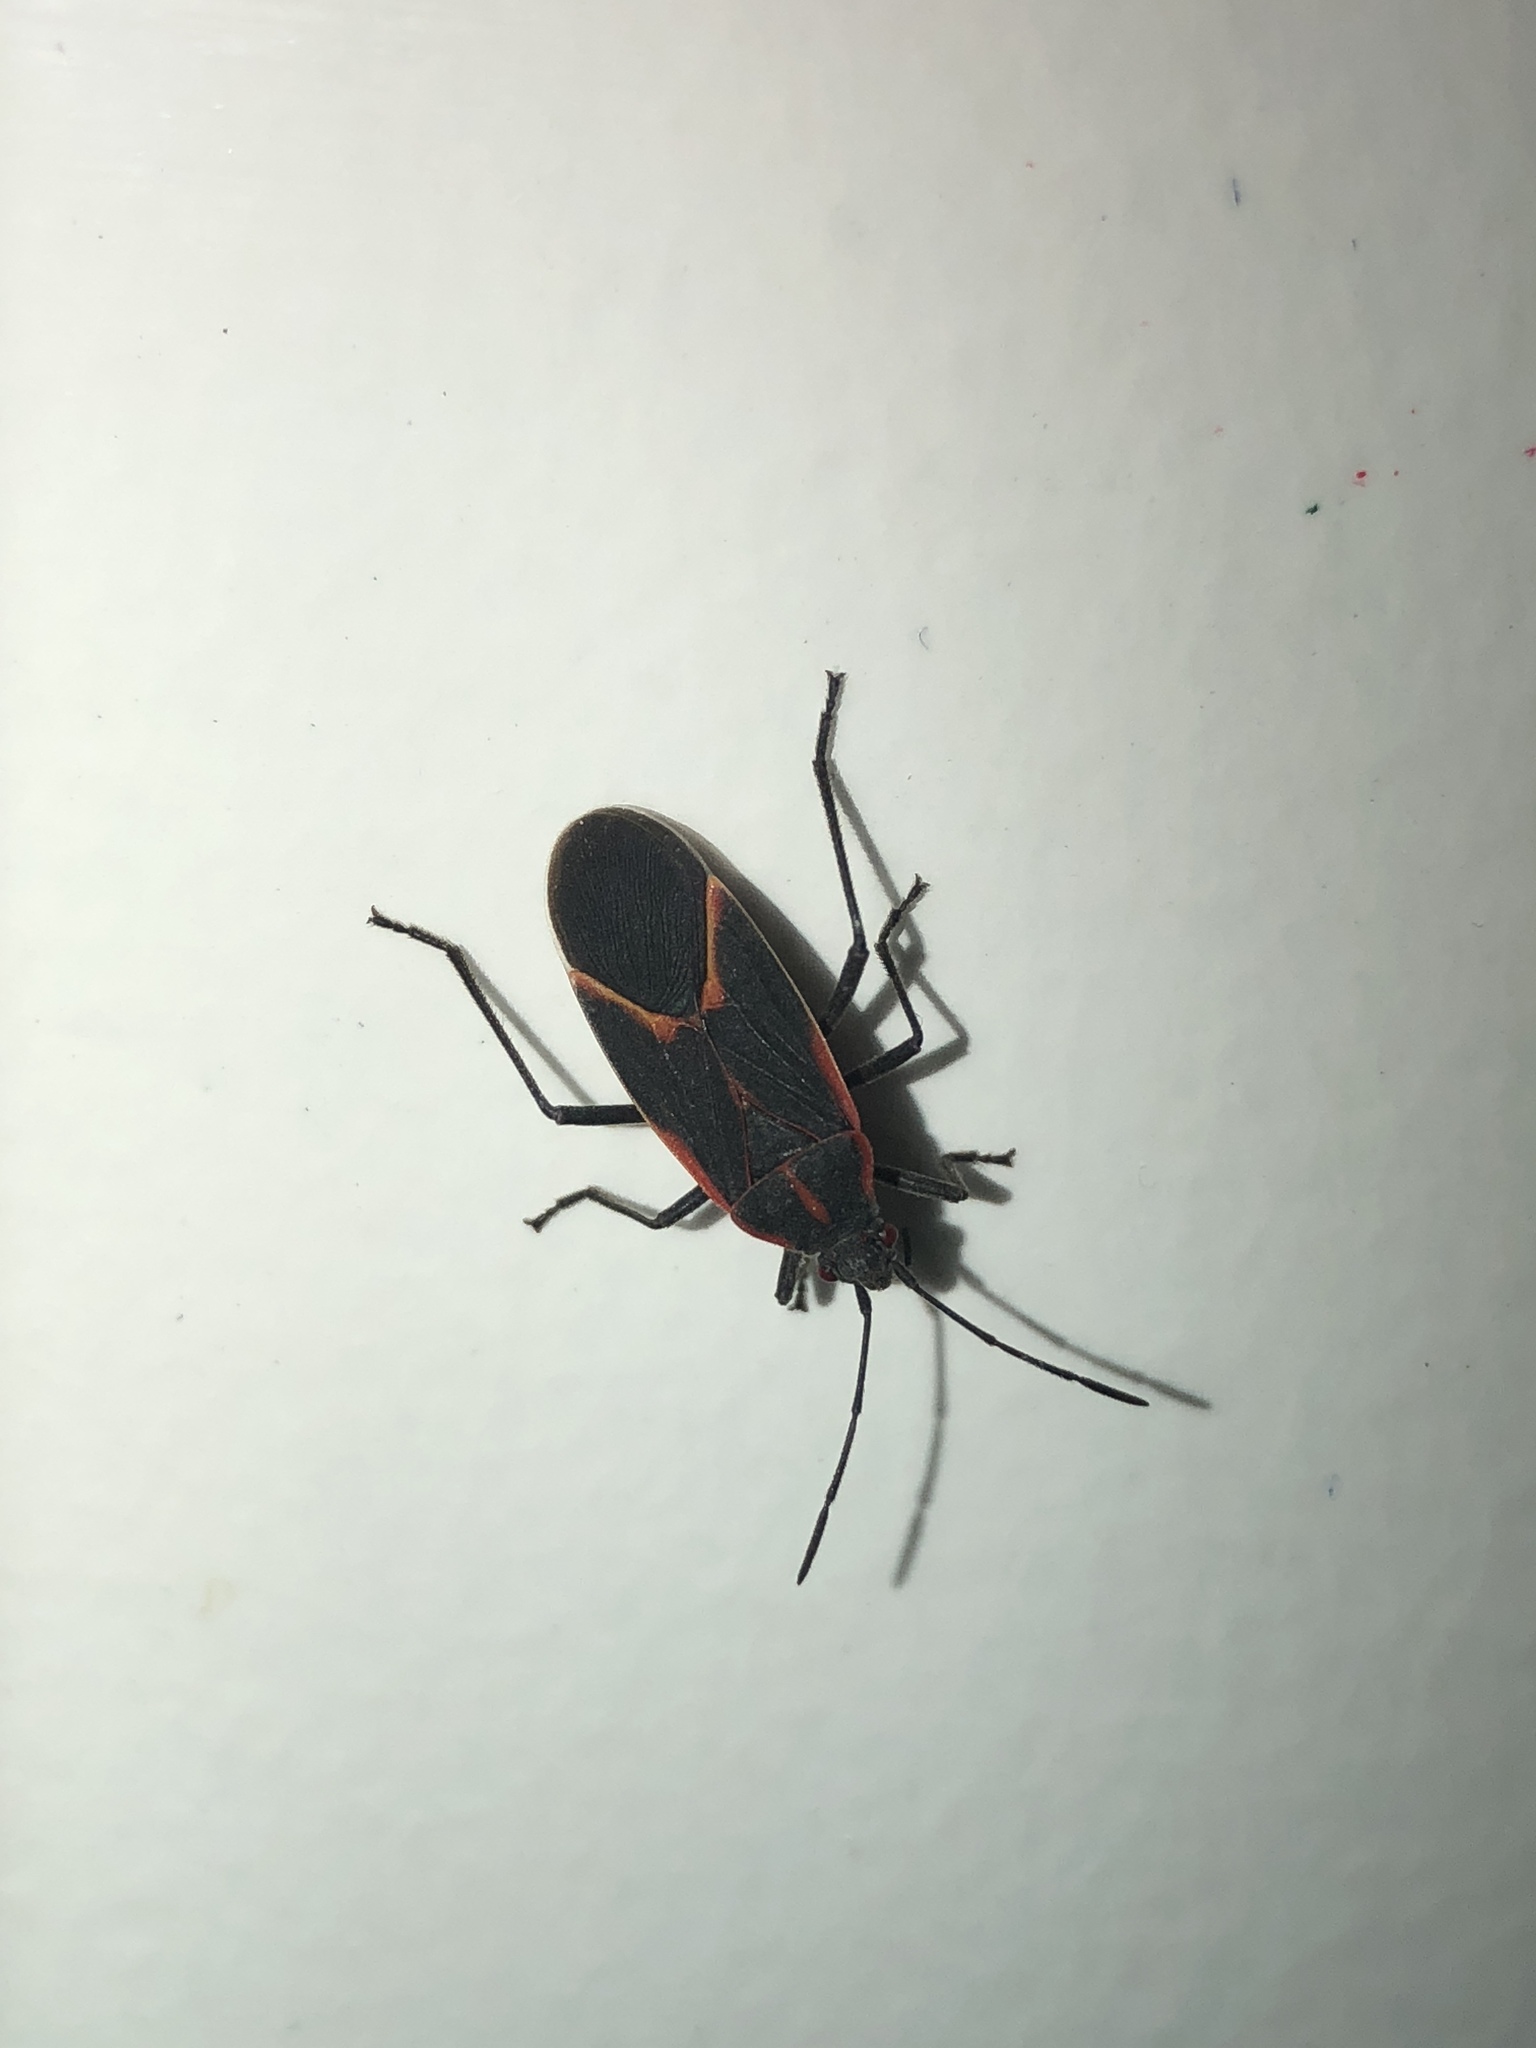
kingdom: Animalia
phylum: Arthropoda
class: Insecta
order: Hemiptera
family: Rhopalidae
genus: Boisea
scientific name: Boisea trivittata
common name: Boxelder bug
